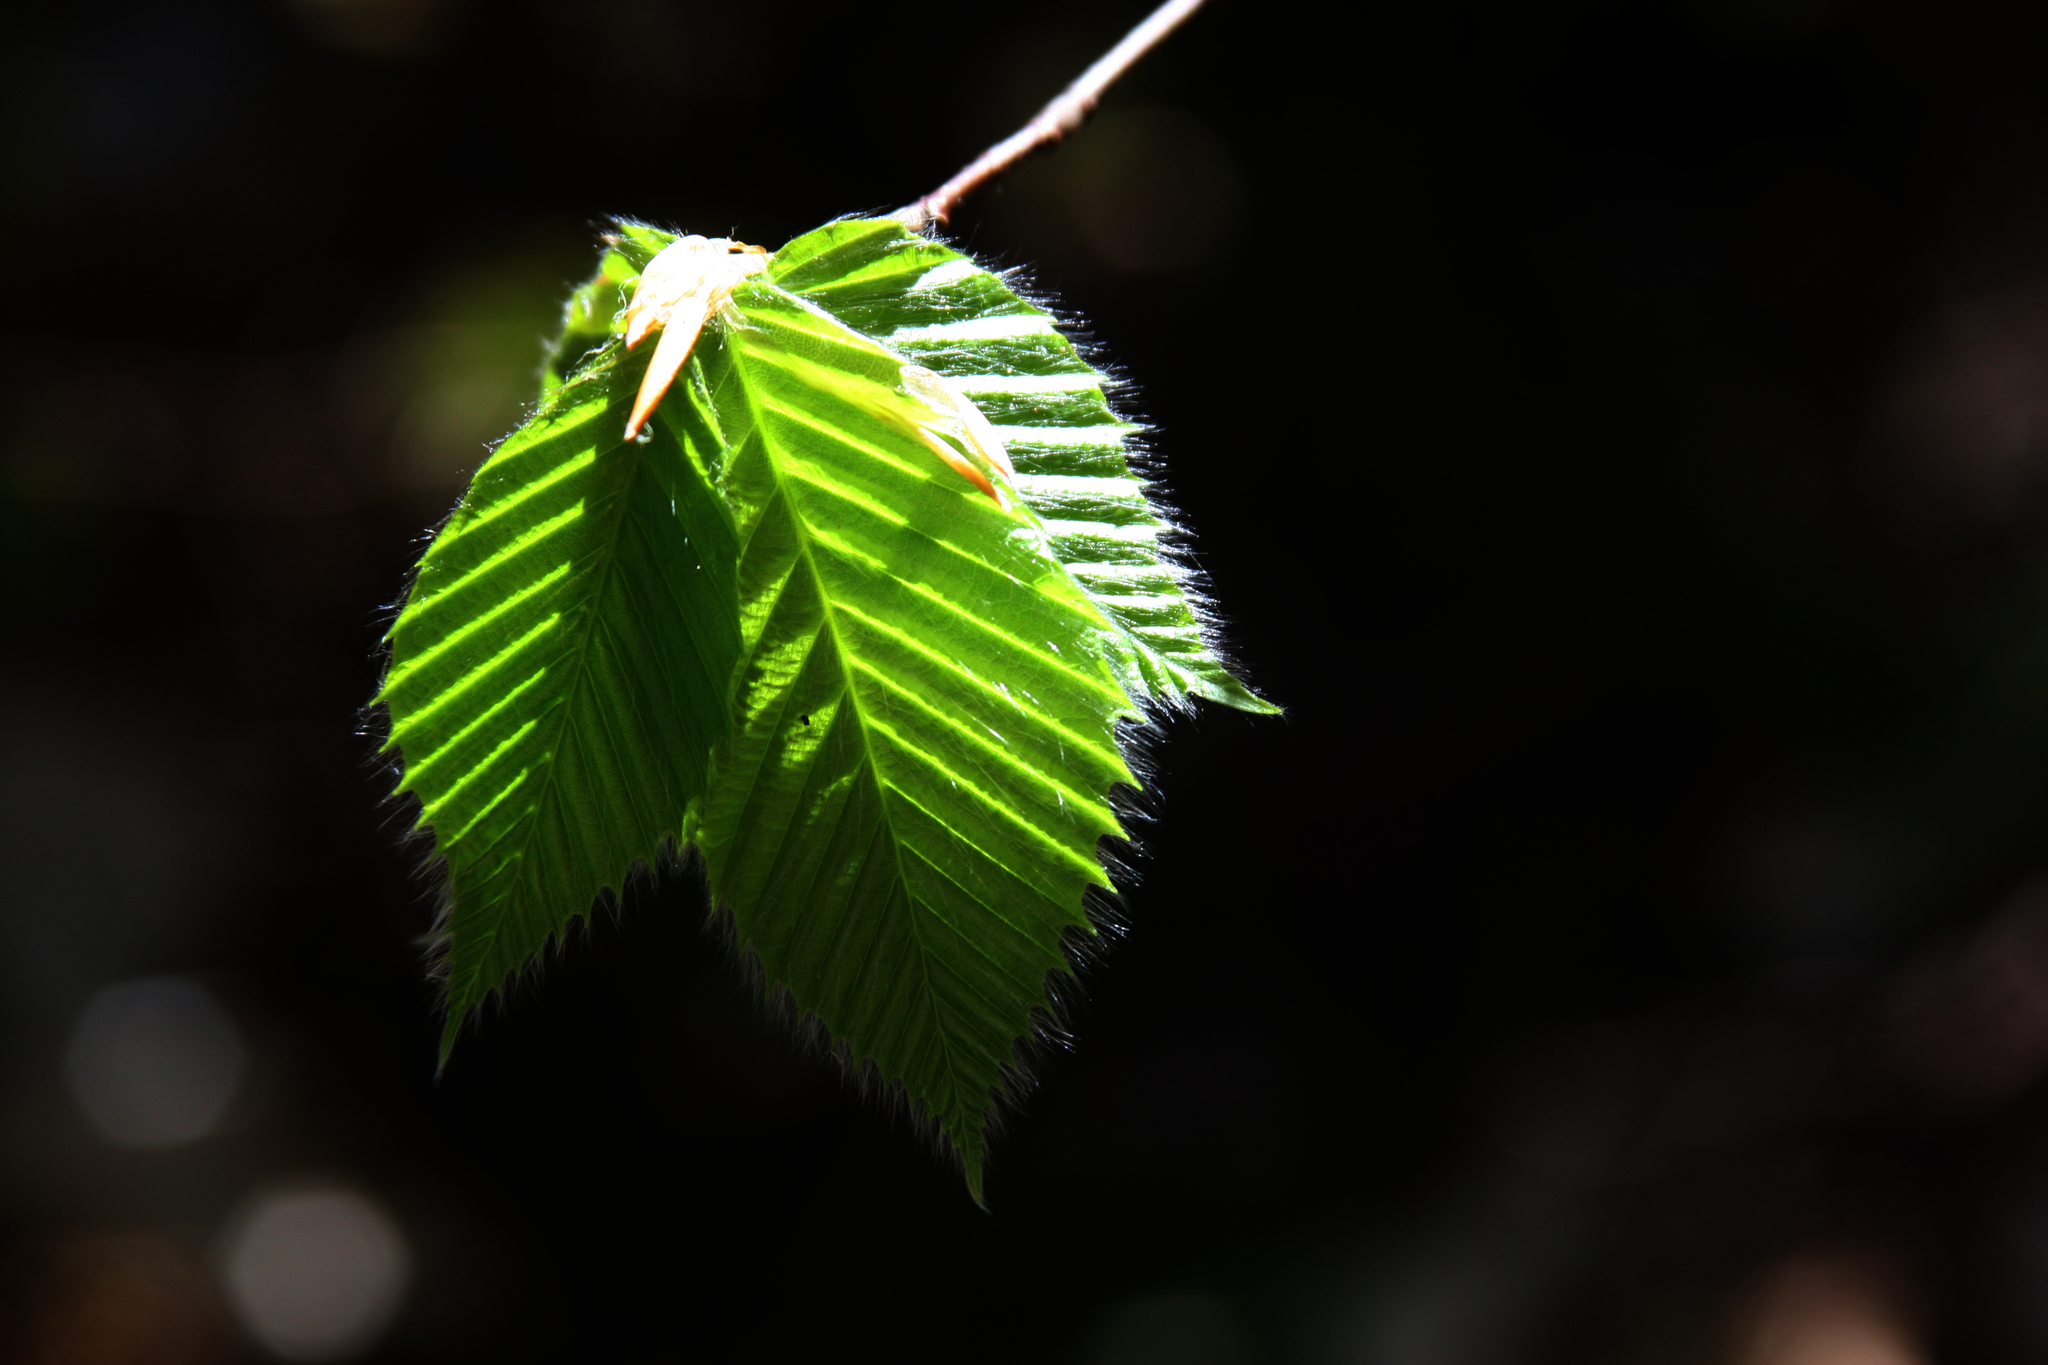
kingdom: Plantae
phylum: Tracheophyta
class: Magnoliopsida
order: Fagales
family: Fagaceae
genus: Fagus
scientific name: Fagus grandifolia
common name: American beech
